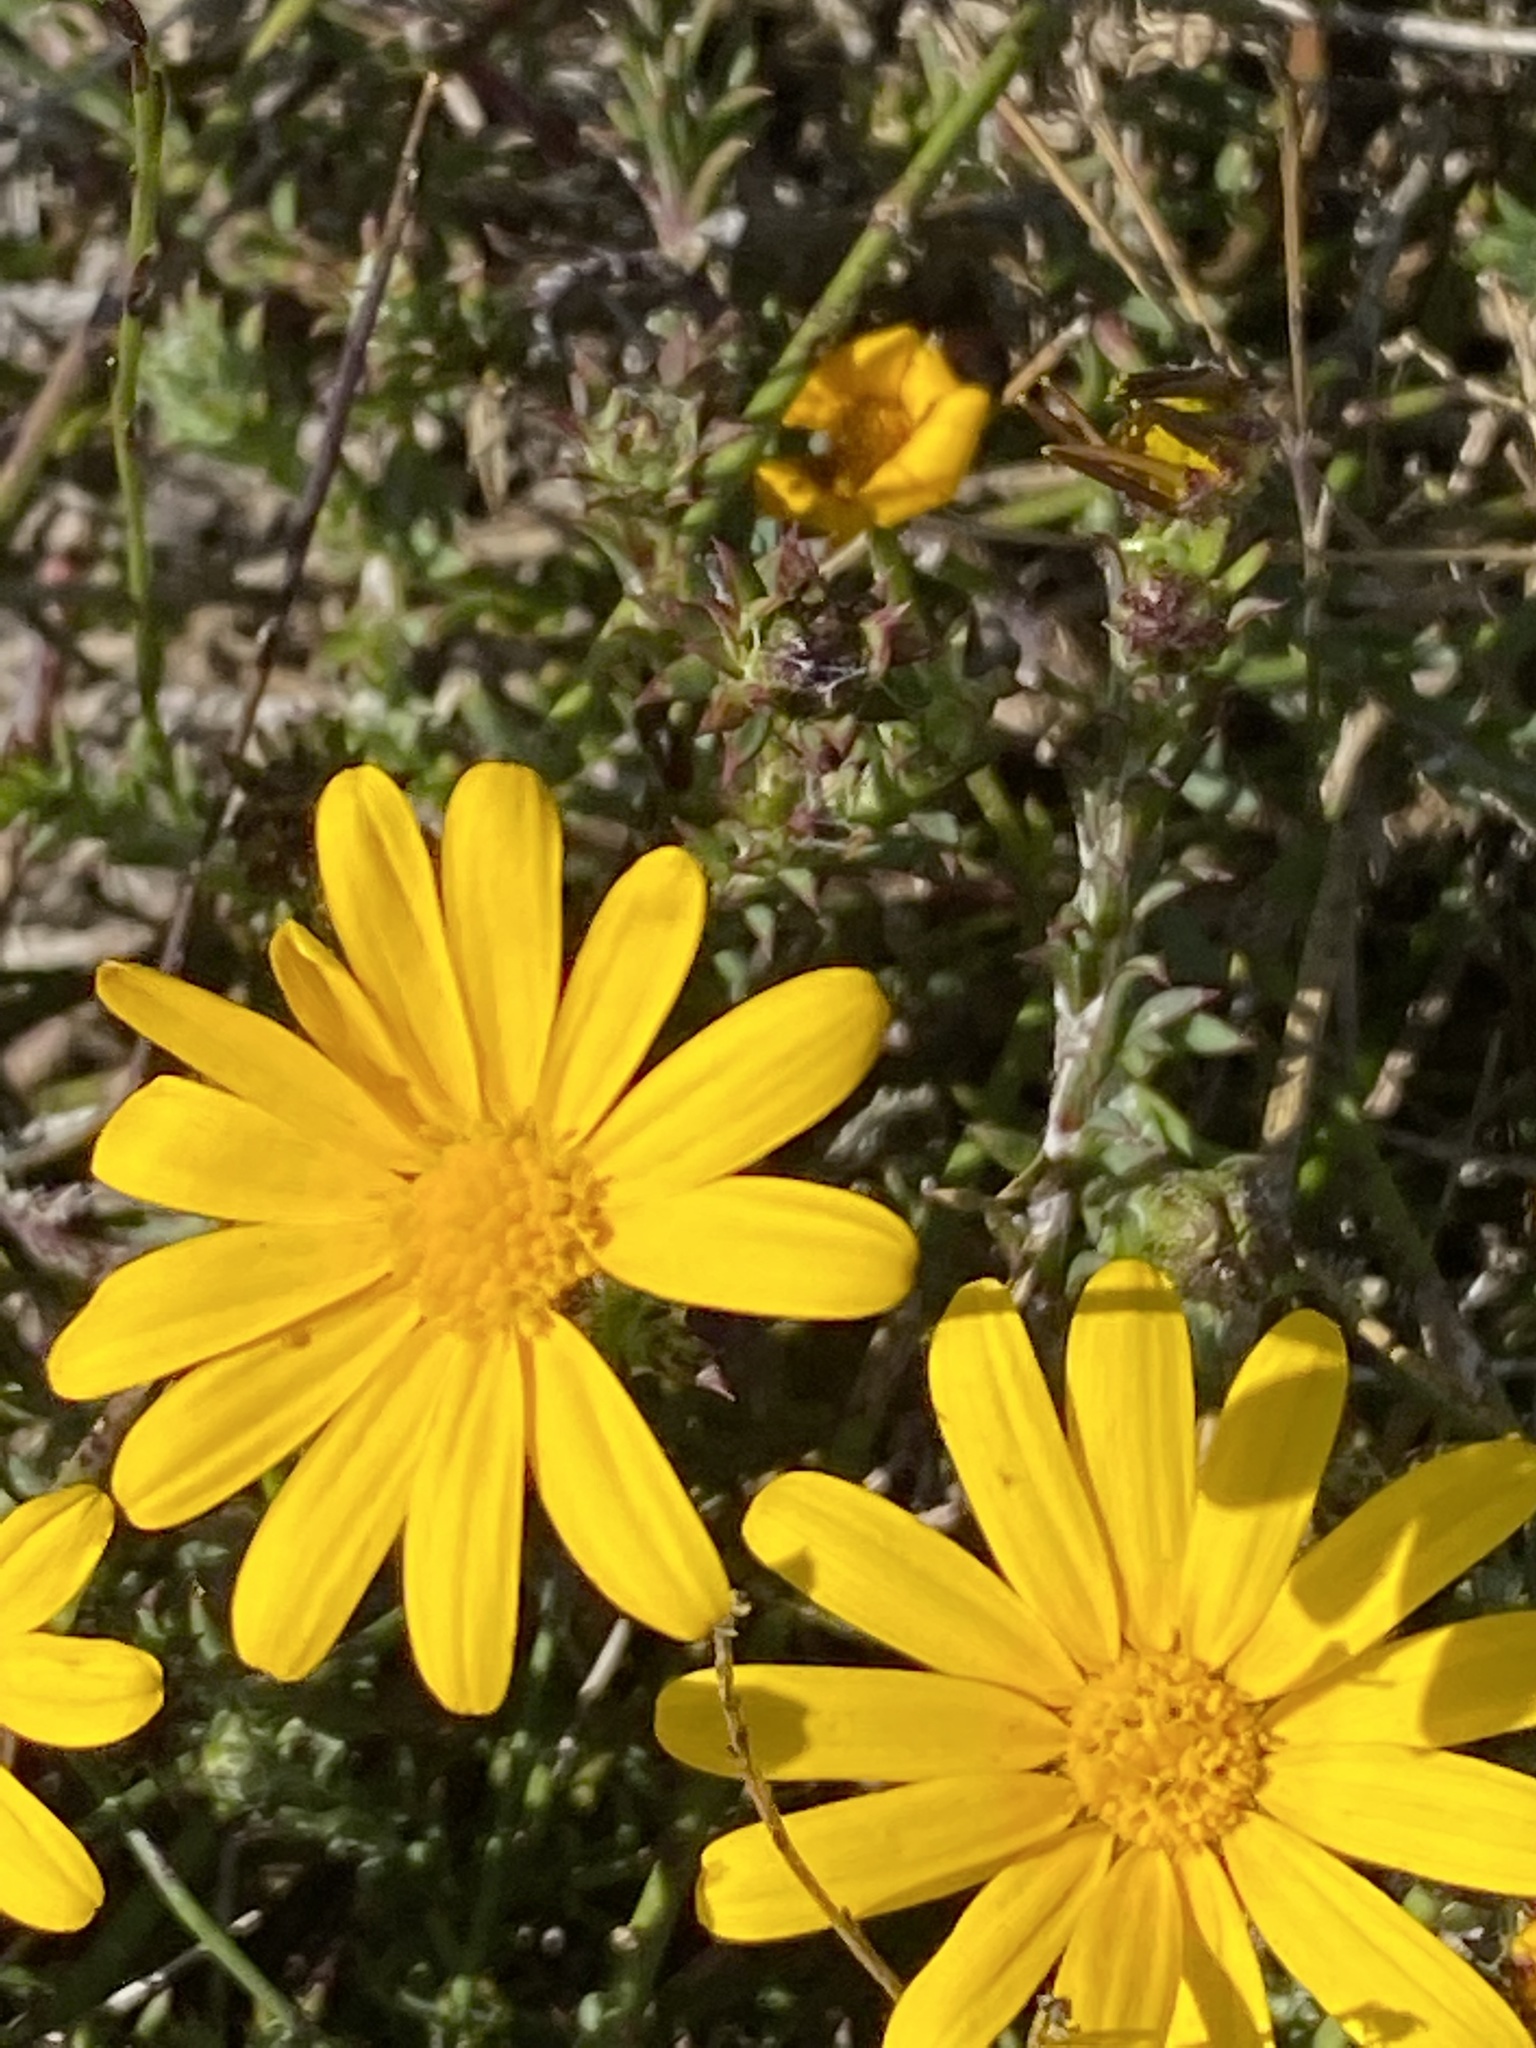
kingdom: Plantae
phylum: Tracheophyta
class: Magnoliopsida
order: Asterales
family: Asteraceae
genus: Osteospermum
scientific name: Osteospermum polygaloides
